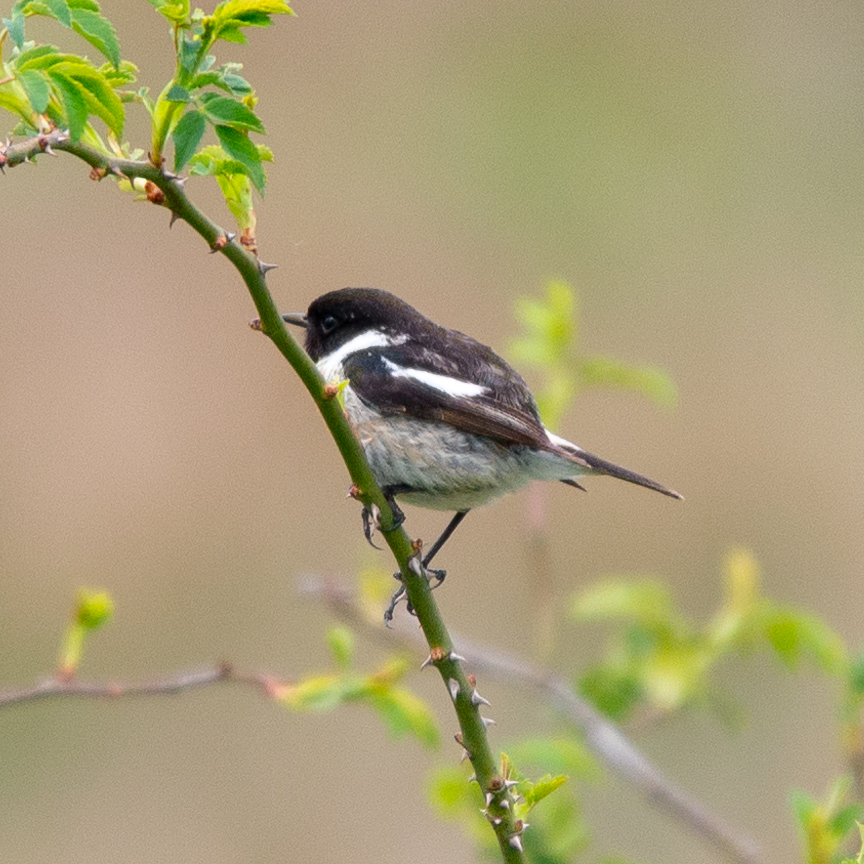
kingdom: Animalia
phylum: Chordata
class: Aves
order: Passeriformes
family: Muscicapidae
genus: Saxicola
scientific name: Saxicola rubicola
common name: European stonechat
